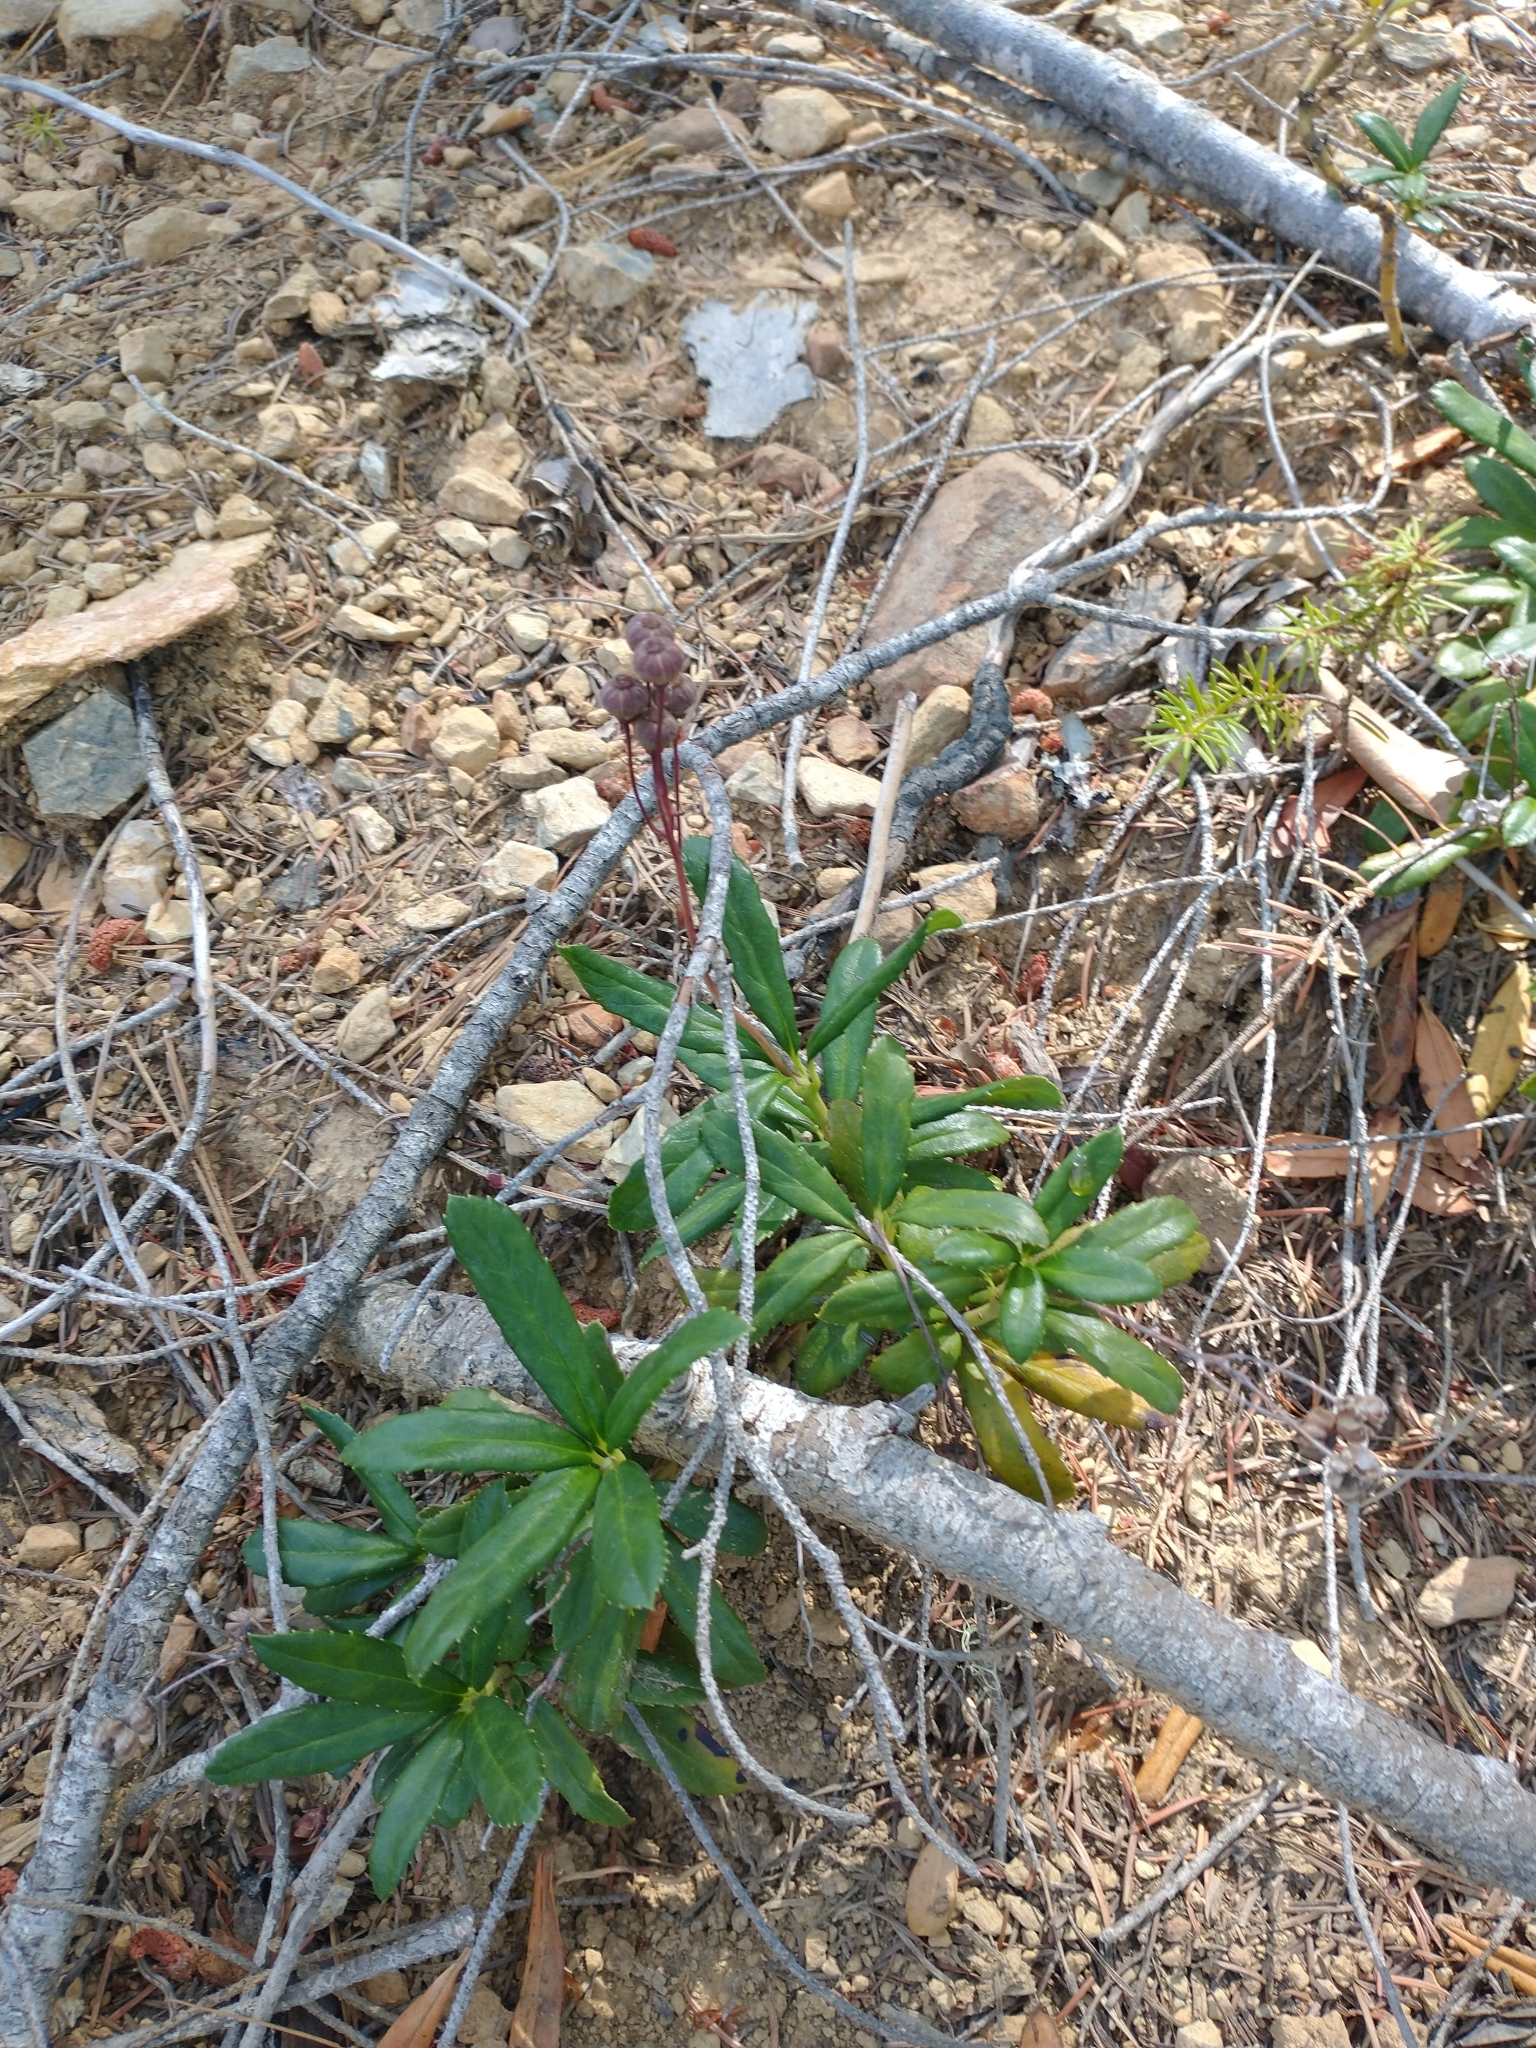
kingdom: Plantae
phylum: Tracheophyta
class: Magnoliopsida
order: Ericales
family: Ericaceae
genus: Chimaphila
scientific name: Chimaphila umbellata
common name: Pipsissewa
